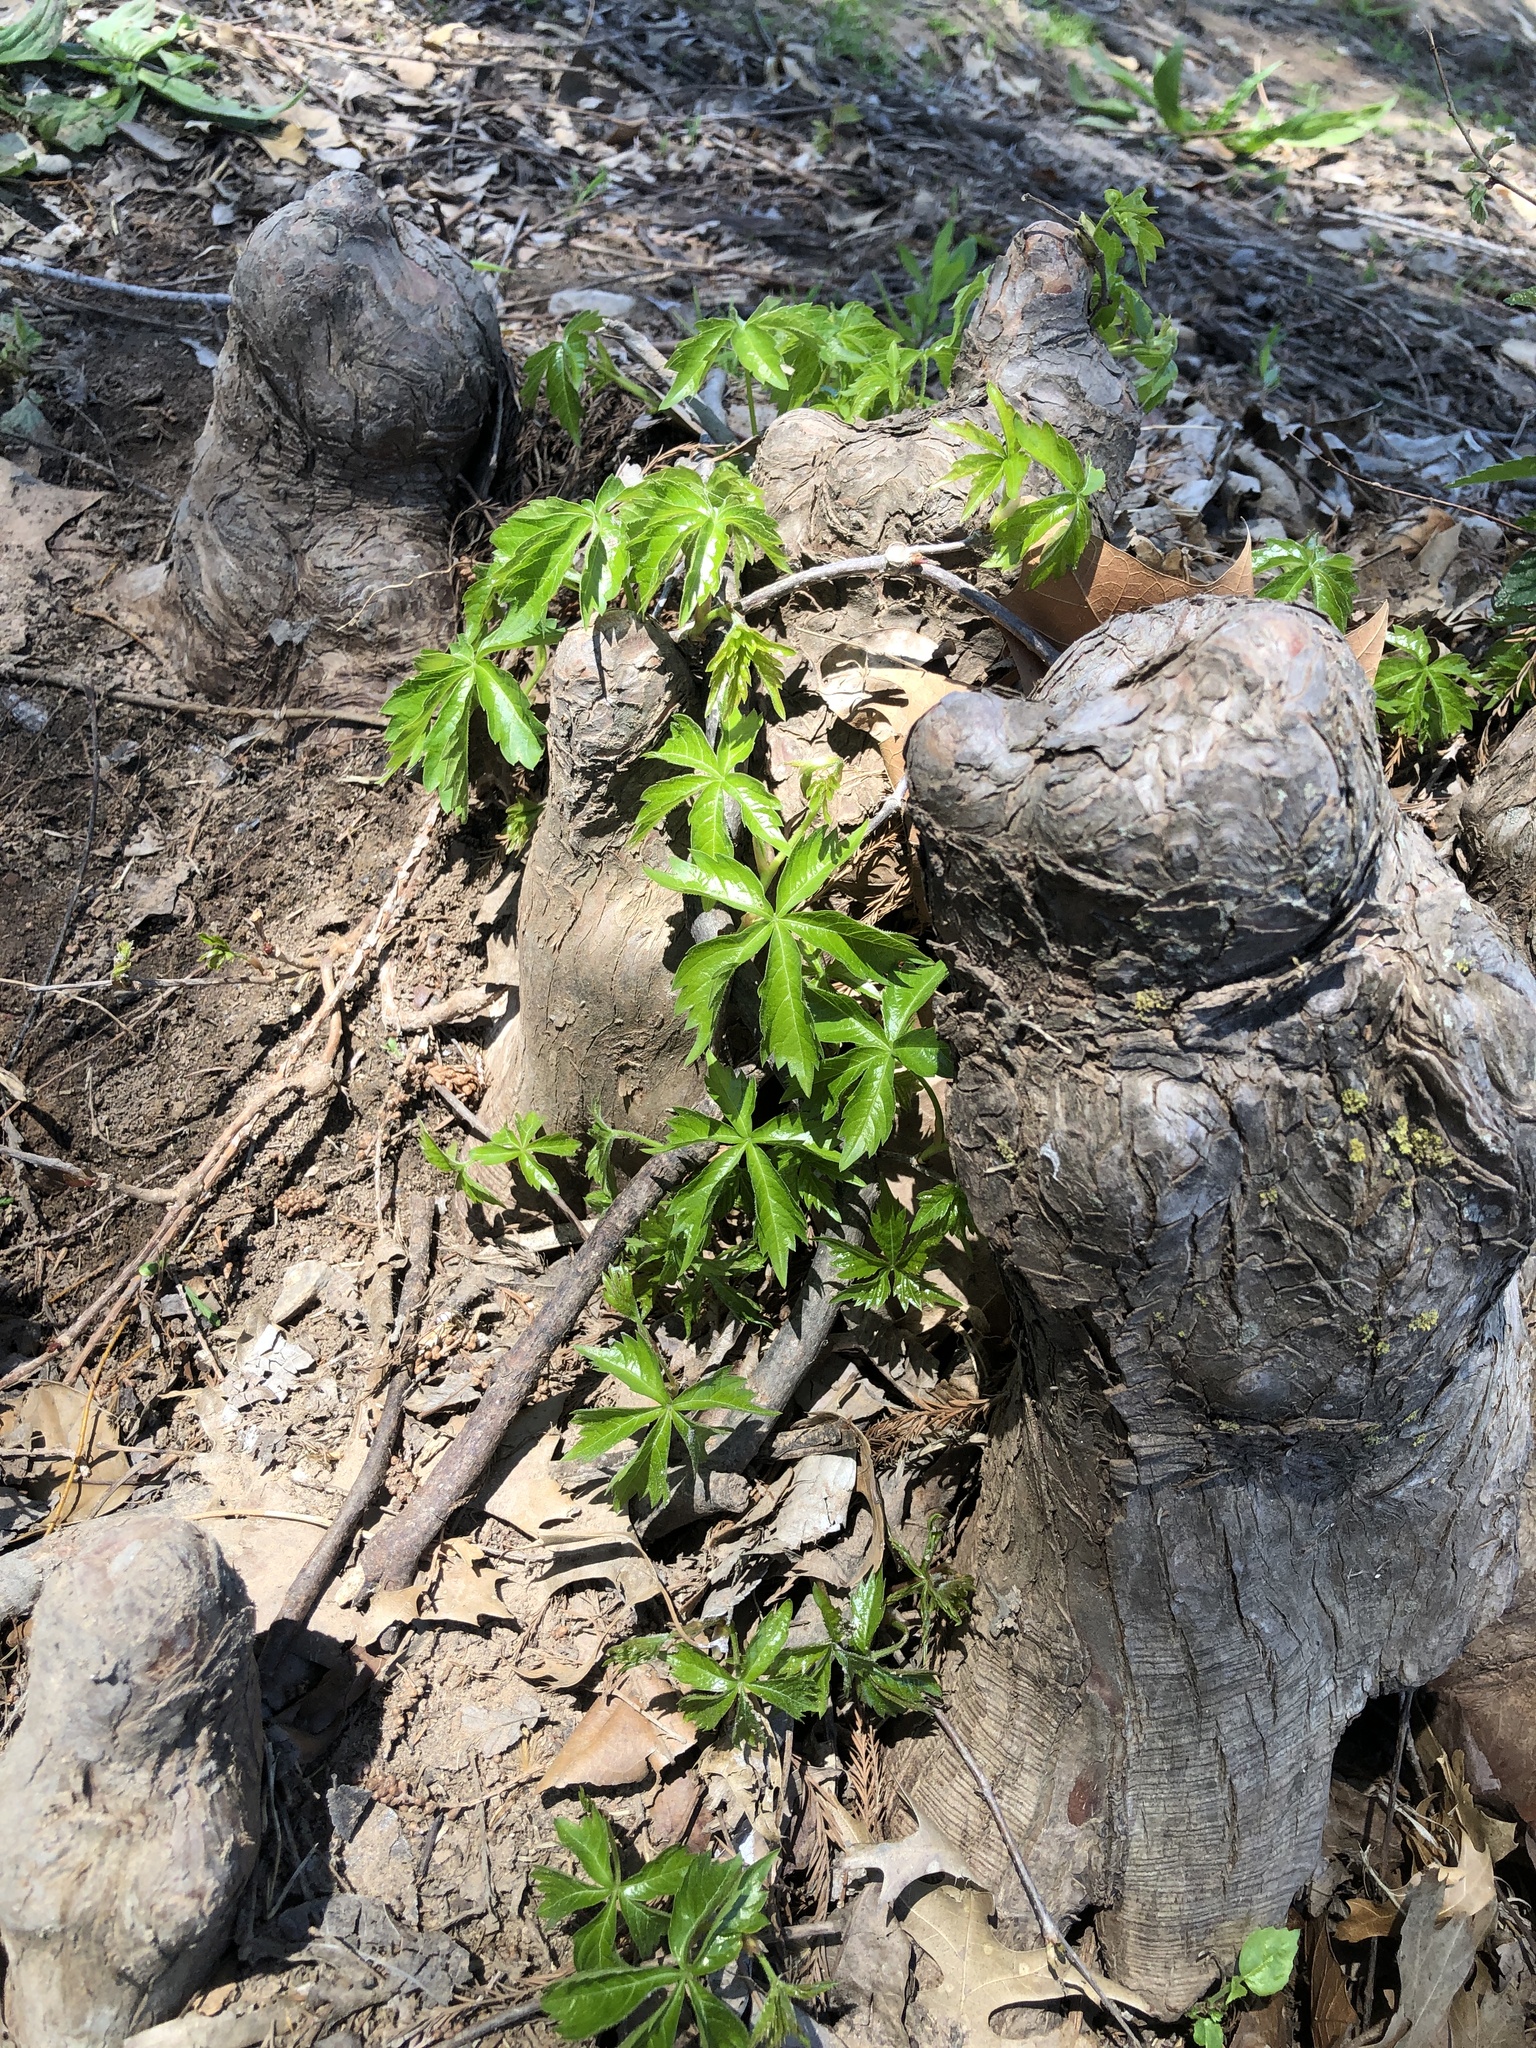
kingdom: Plantae
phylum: Tracheophyta
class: Magnoliopsida
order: Vitales
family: Vitaceae
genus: Parthenocissus
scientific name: Parthenocissus quinquefolia
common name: Virginia-creeper
